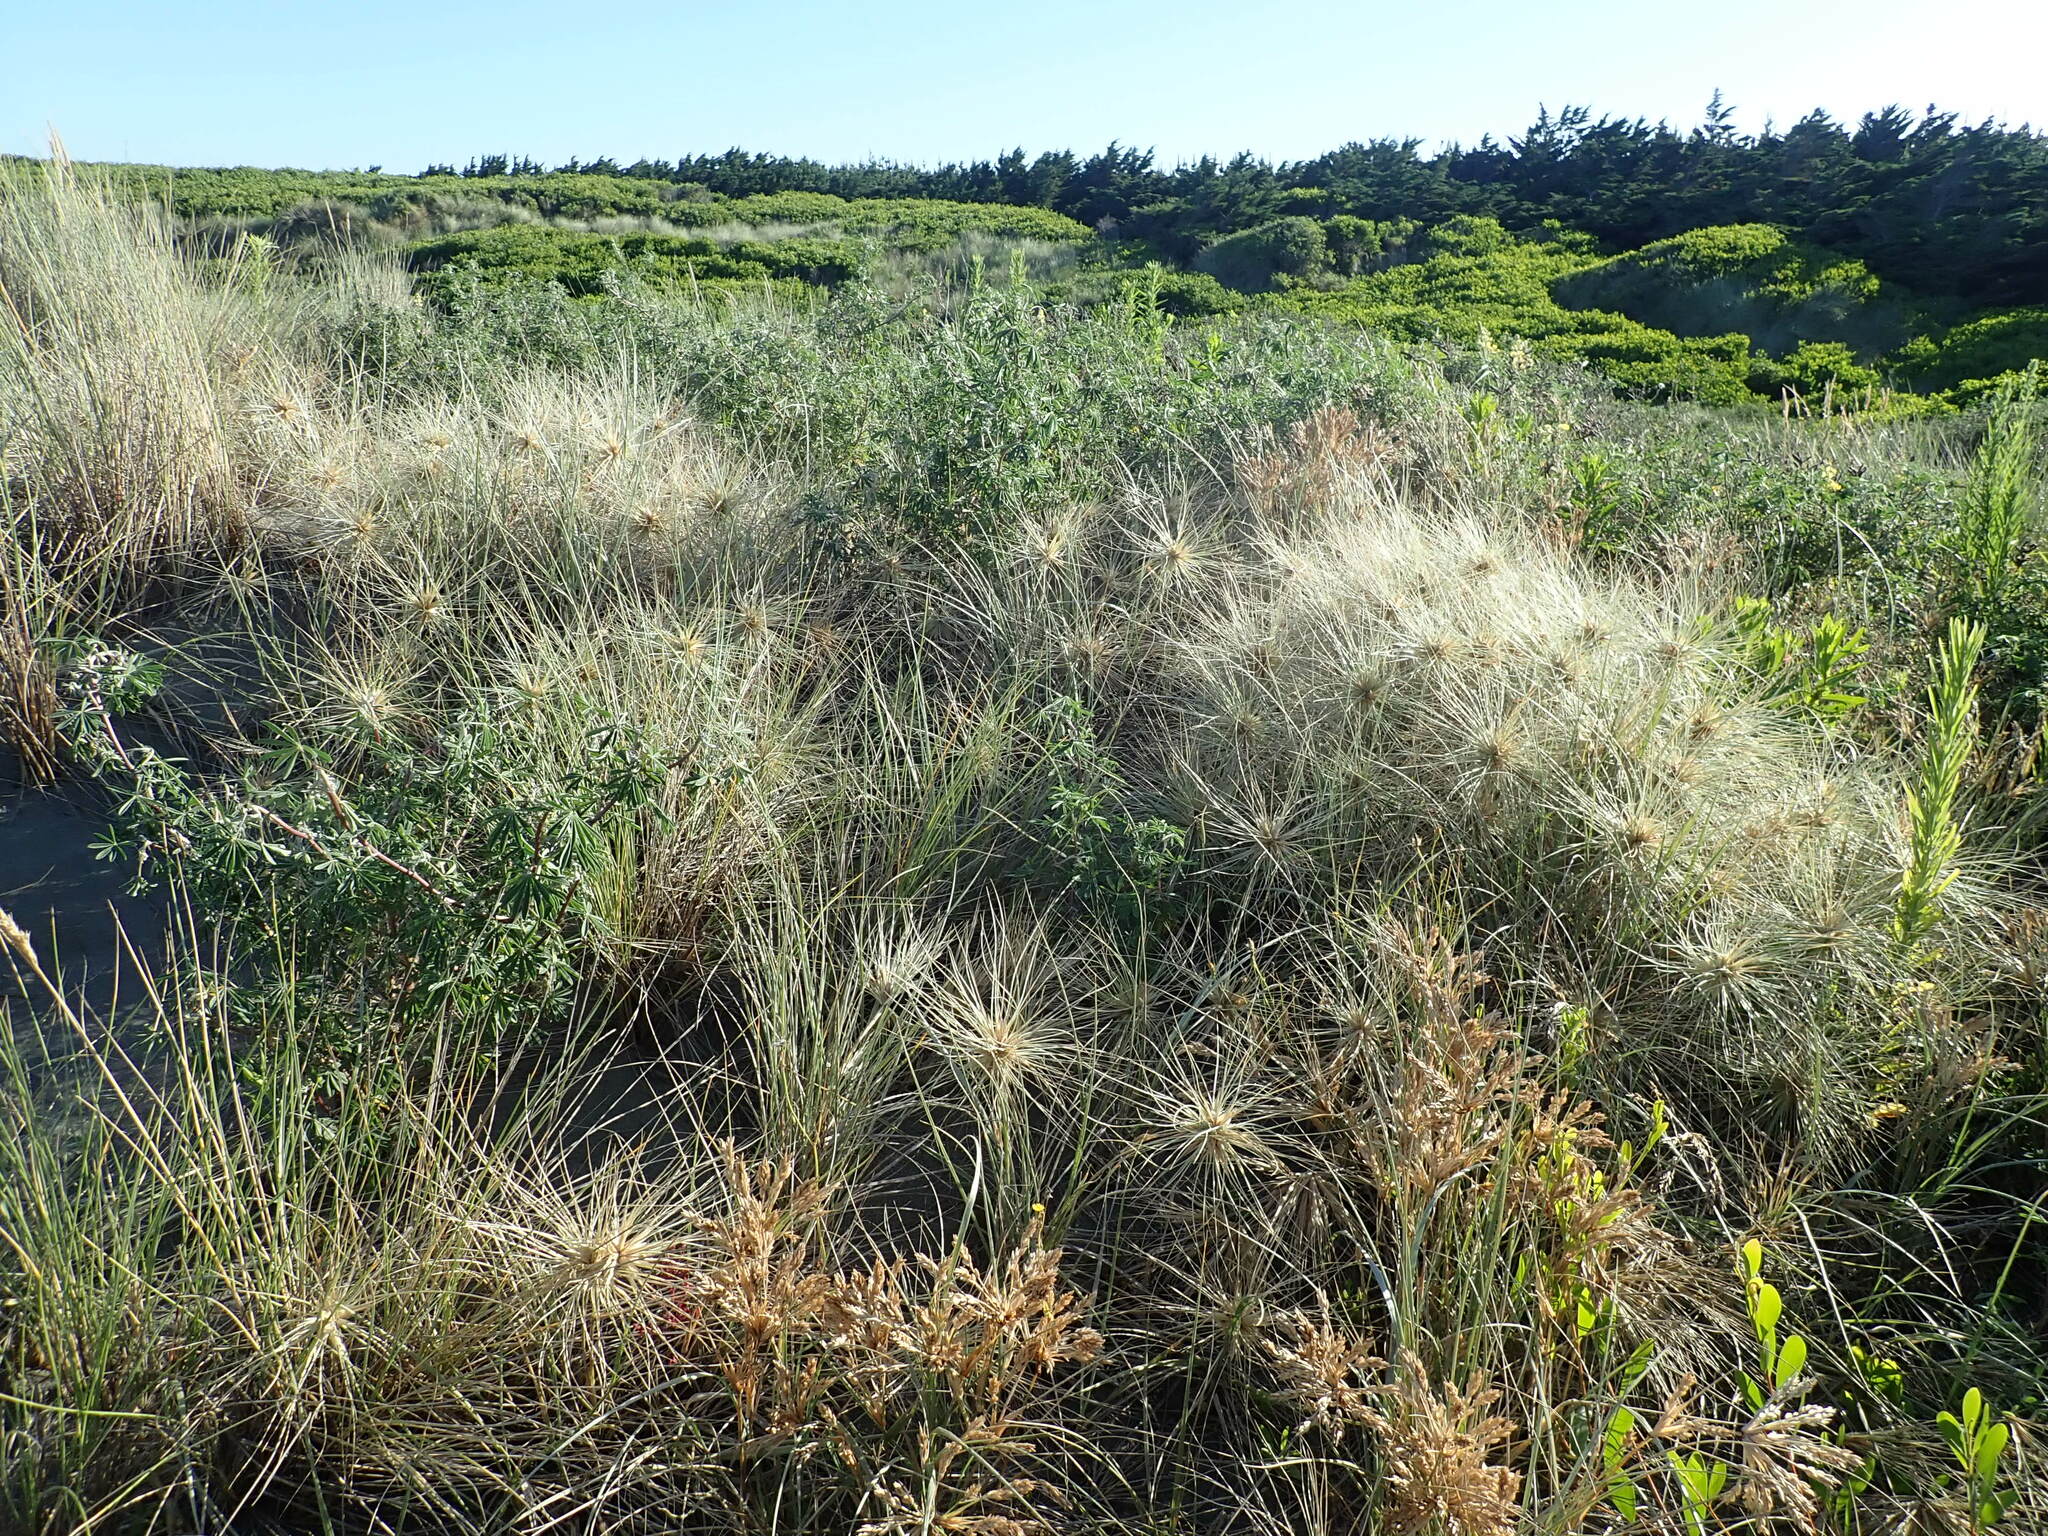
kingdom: Plantae
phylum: Tracheophyta
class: Magnoliopsida
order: Fabales
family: Fabaceae
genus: Lupinus
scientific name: Lupinus arboreus
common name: Yellow bush lupine
